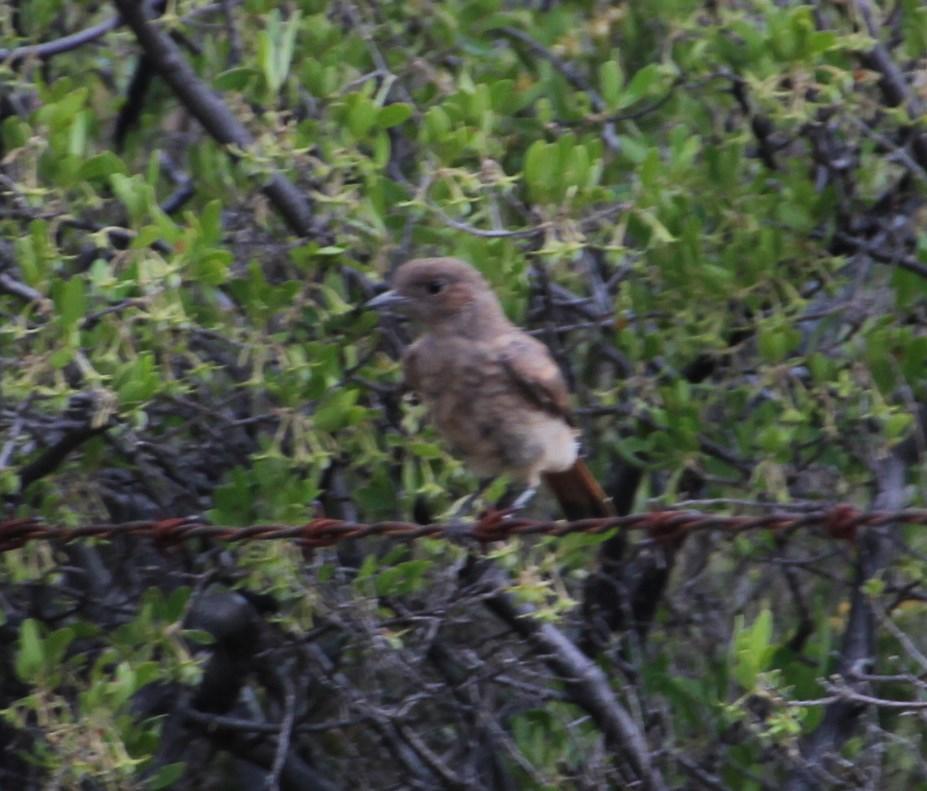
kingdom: Animalia
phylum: Chordata
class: Aves
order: Passeriformes
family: Muscicapidae
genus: Oenanthe
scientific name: Oenanthe familiaris
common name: Familiar chat
